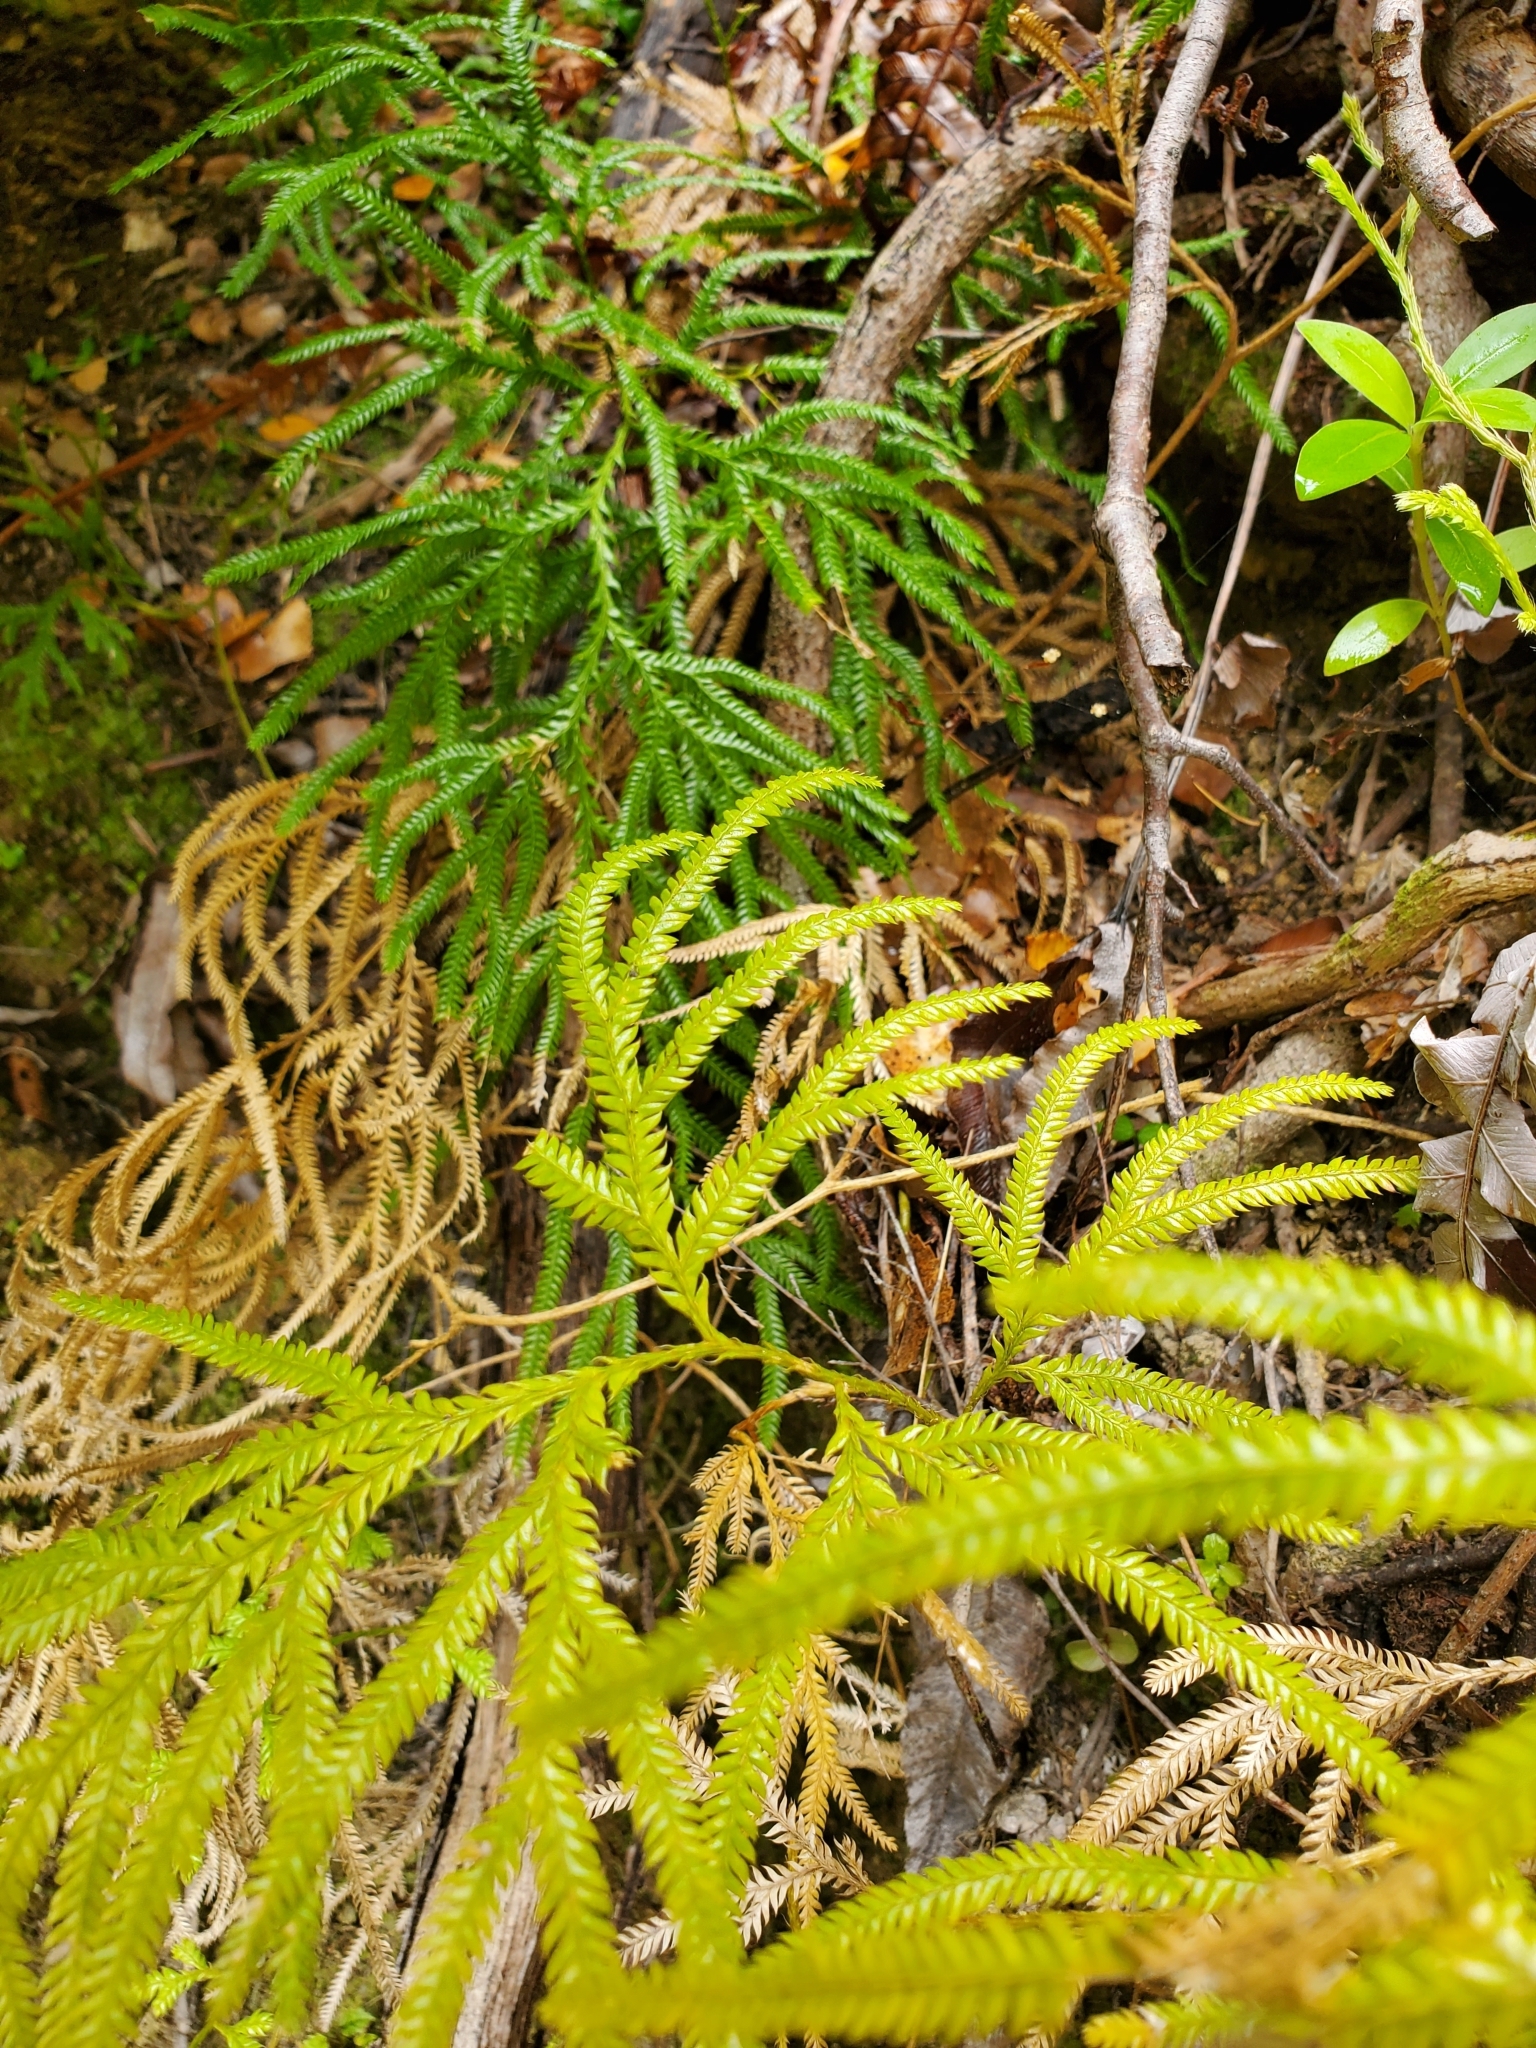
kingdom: Plantae
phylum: Tracheophyta
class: Lycopodiopsida
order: Lycopodiales
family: Lycopodiaceae
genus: Lycopodium
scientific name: Lycopodium volubile
